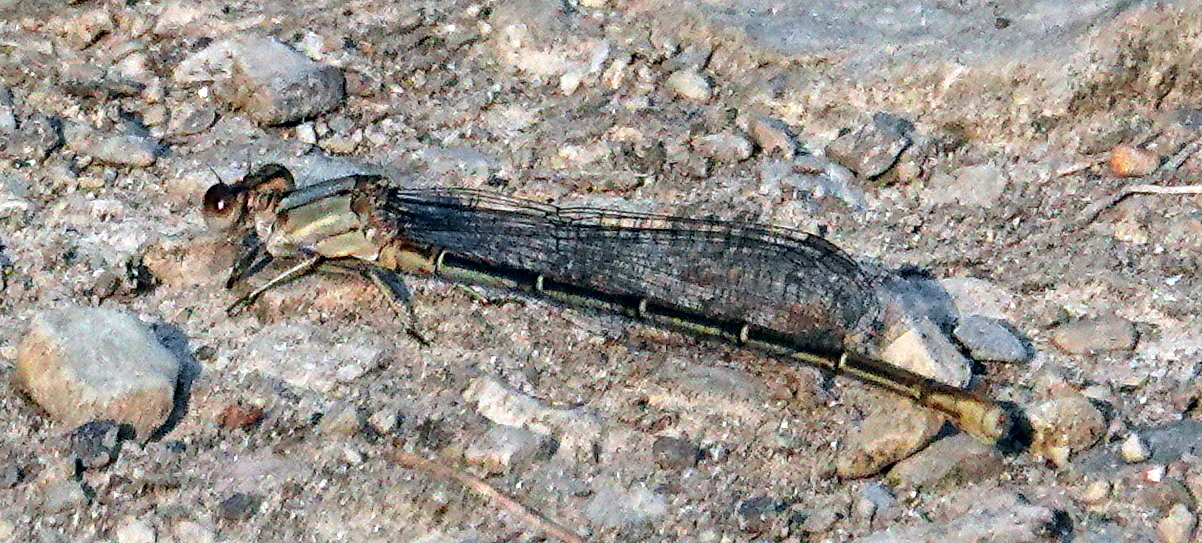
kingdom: Animalia
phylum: Arthropoda
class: Insecta
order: Odonata
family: Coenagrionidae
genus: Argia
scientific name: Argia moesta
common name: Powdered dancer
